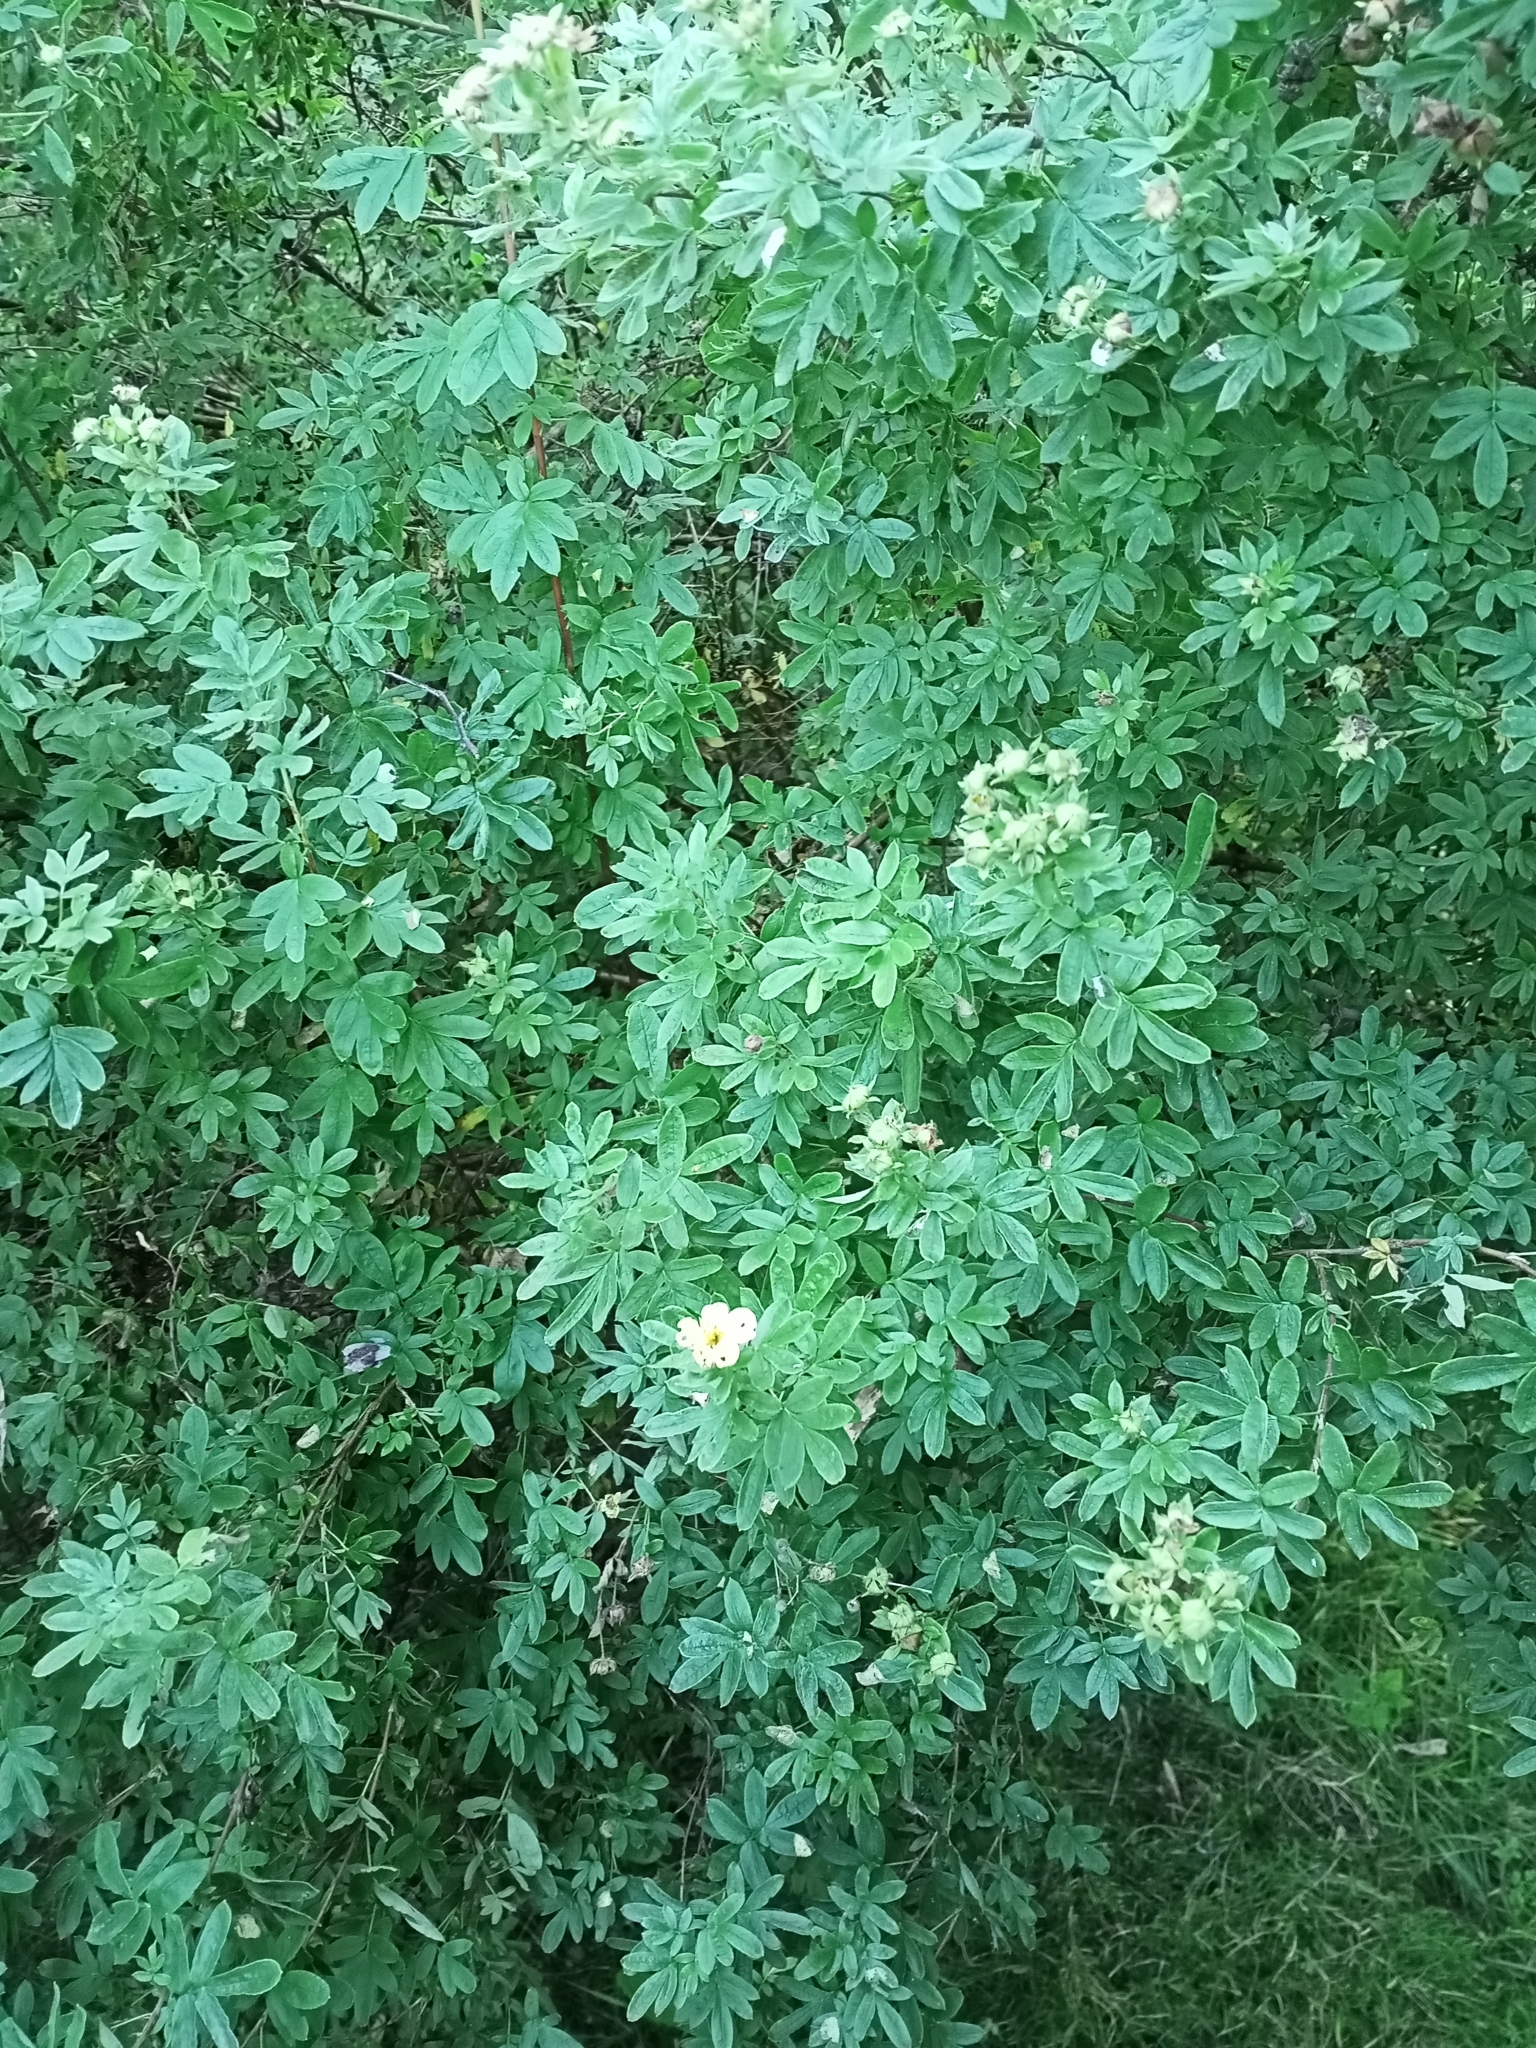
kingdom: Plantae
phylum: Tracheophyta
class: Magnoliopsida
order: Rosales
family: Rosaceae
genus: Dasiphora
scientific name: Dasiphora fruticosa
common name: Shrubby cinquefoil
